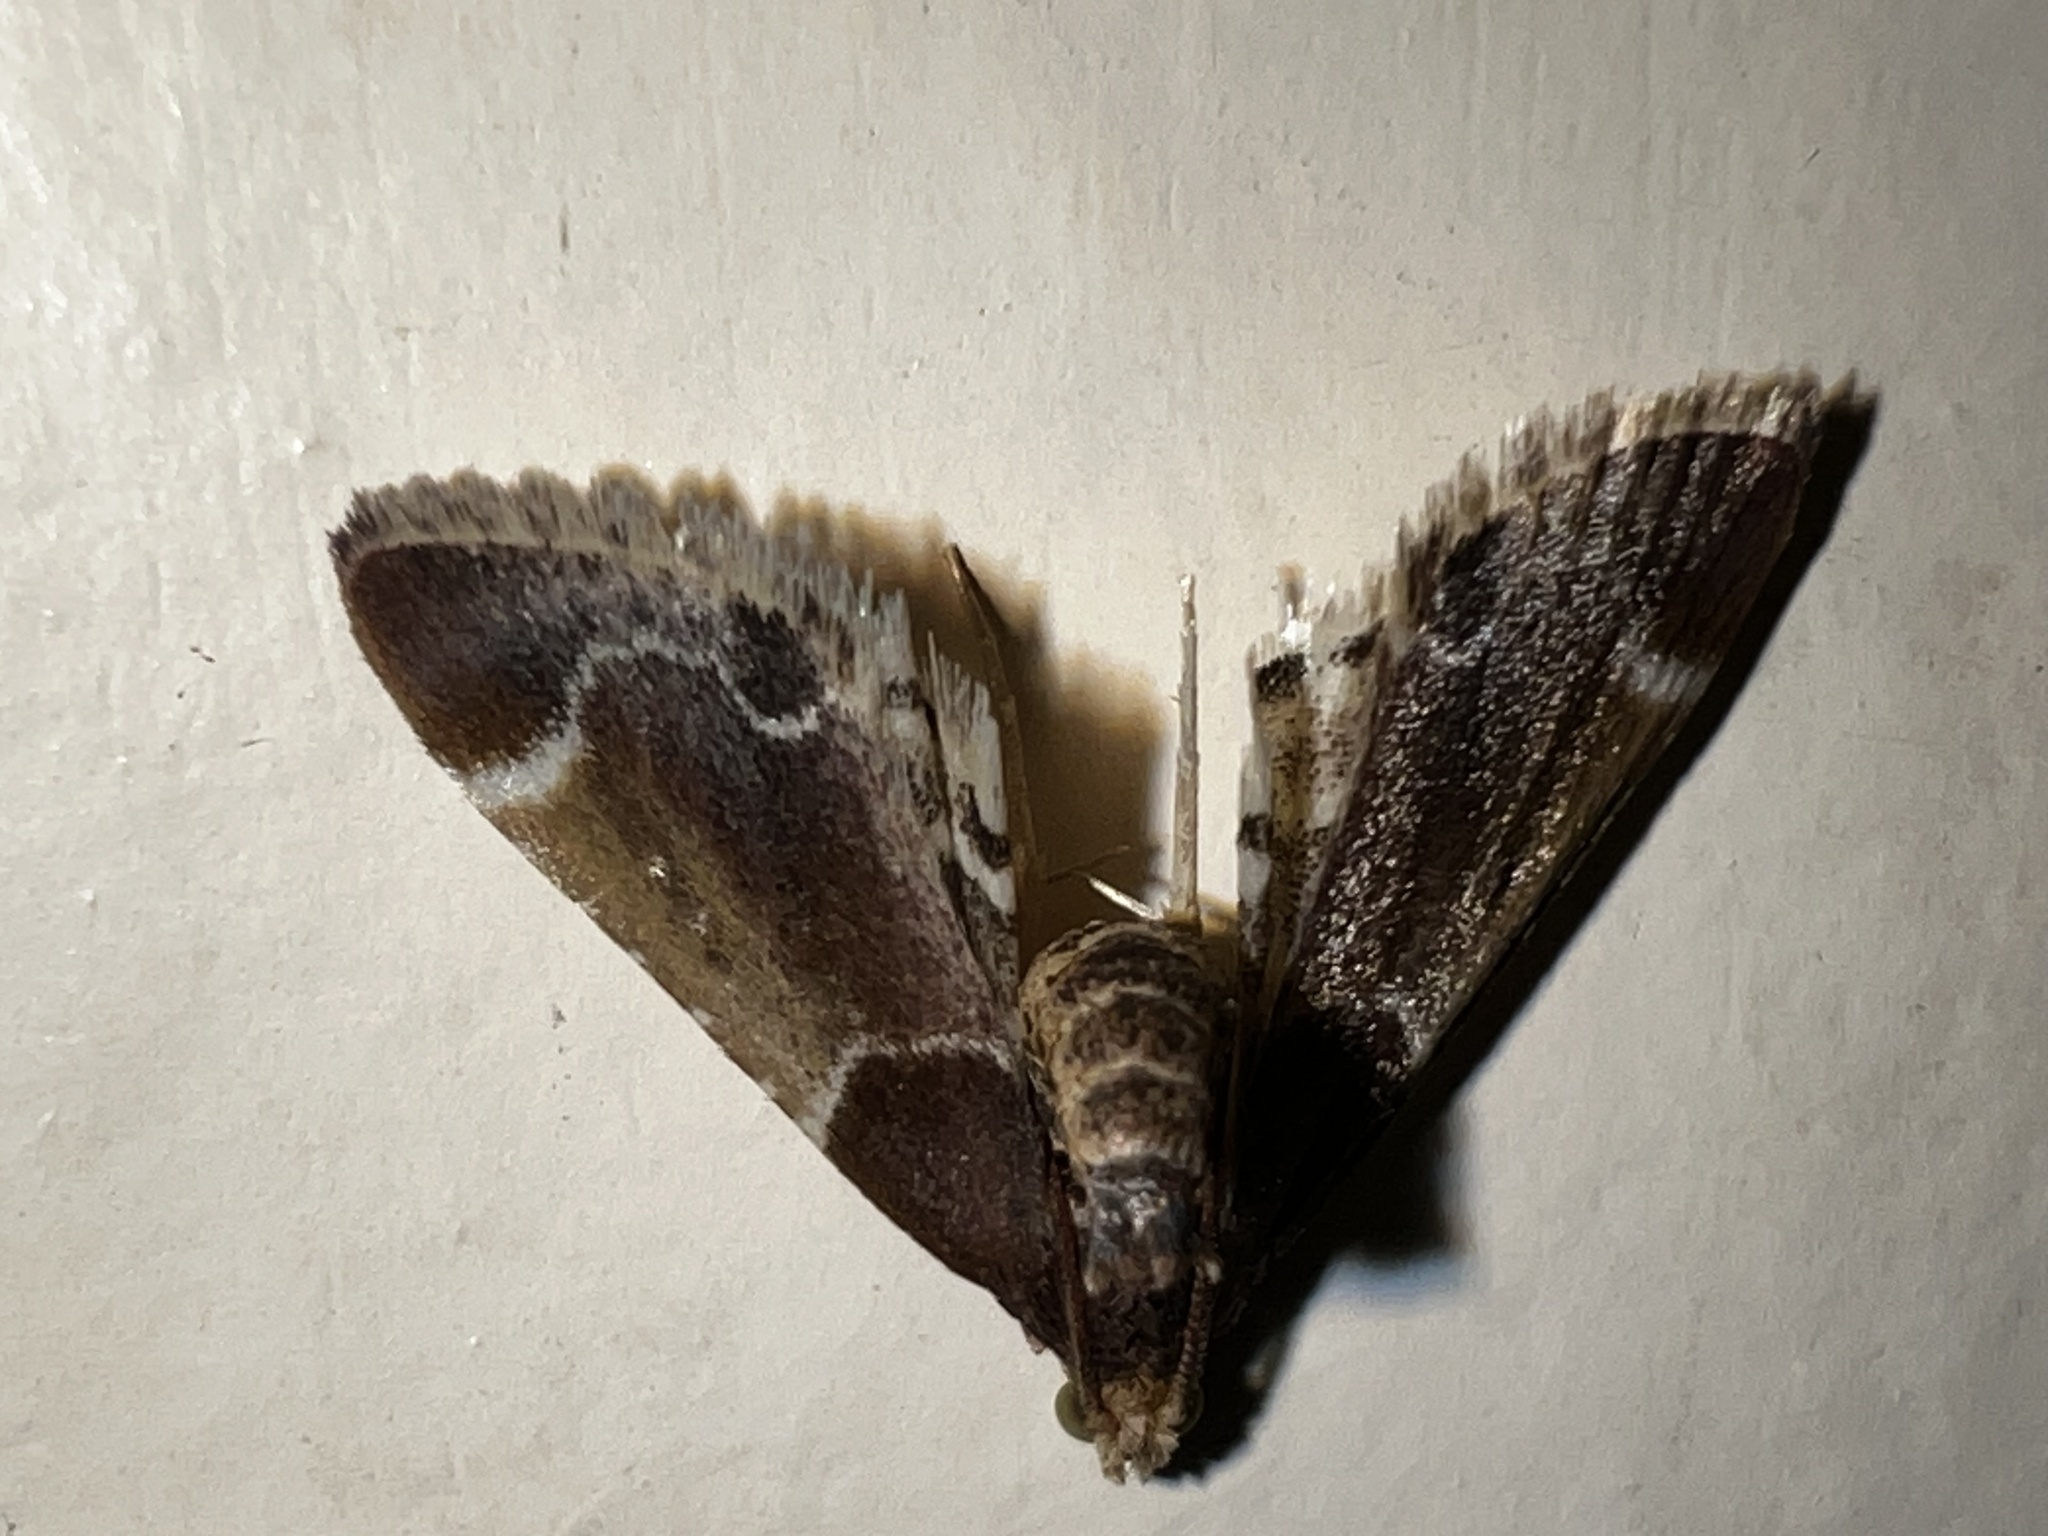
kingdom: Animalia
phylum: Arthropoda
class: Insecta
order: Lepidoptera
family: Pyralidae
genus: Pyralis
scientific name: Pyralis farinalis
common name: Meal moth
